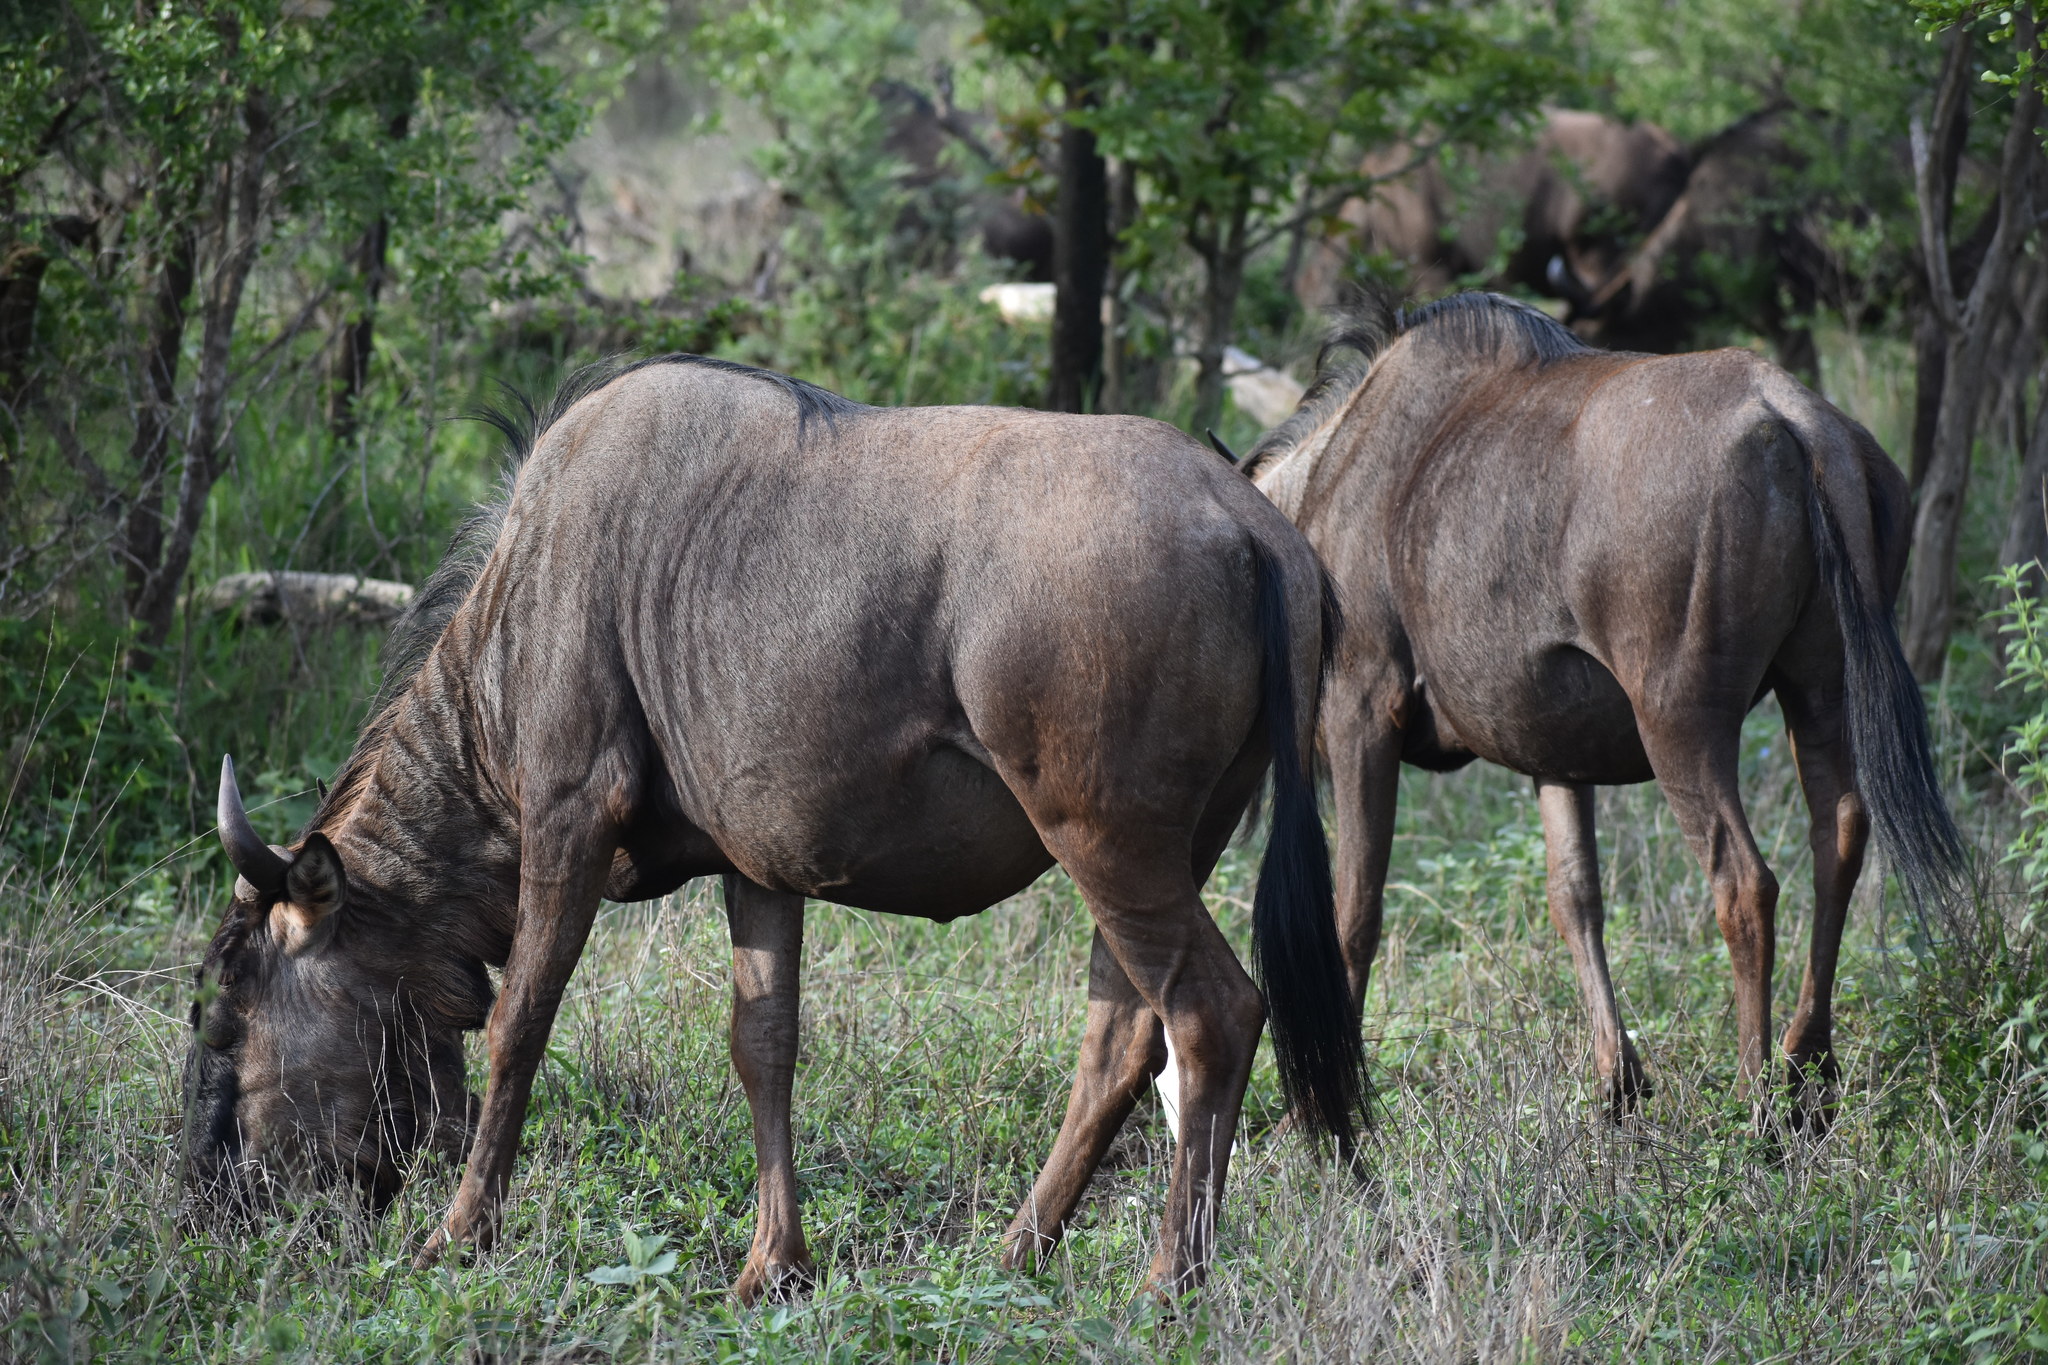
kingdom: Animalia
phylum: Chordata
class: Mammalia
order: Artiodactyla
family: Bovidae
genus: Connochaetes
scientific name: Connochaetes taurinus
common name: Blue wildebeest
